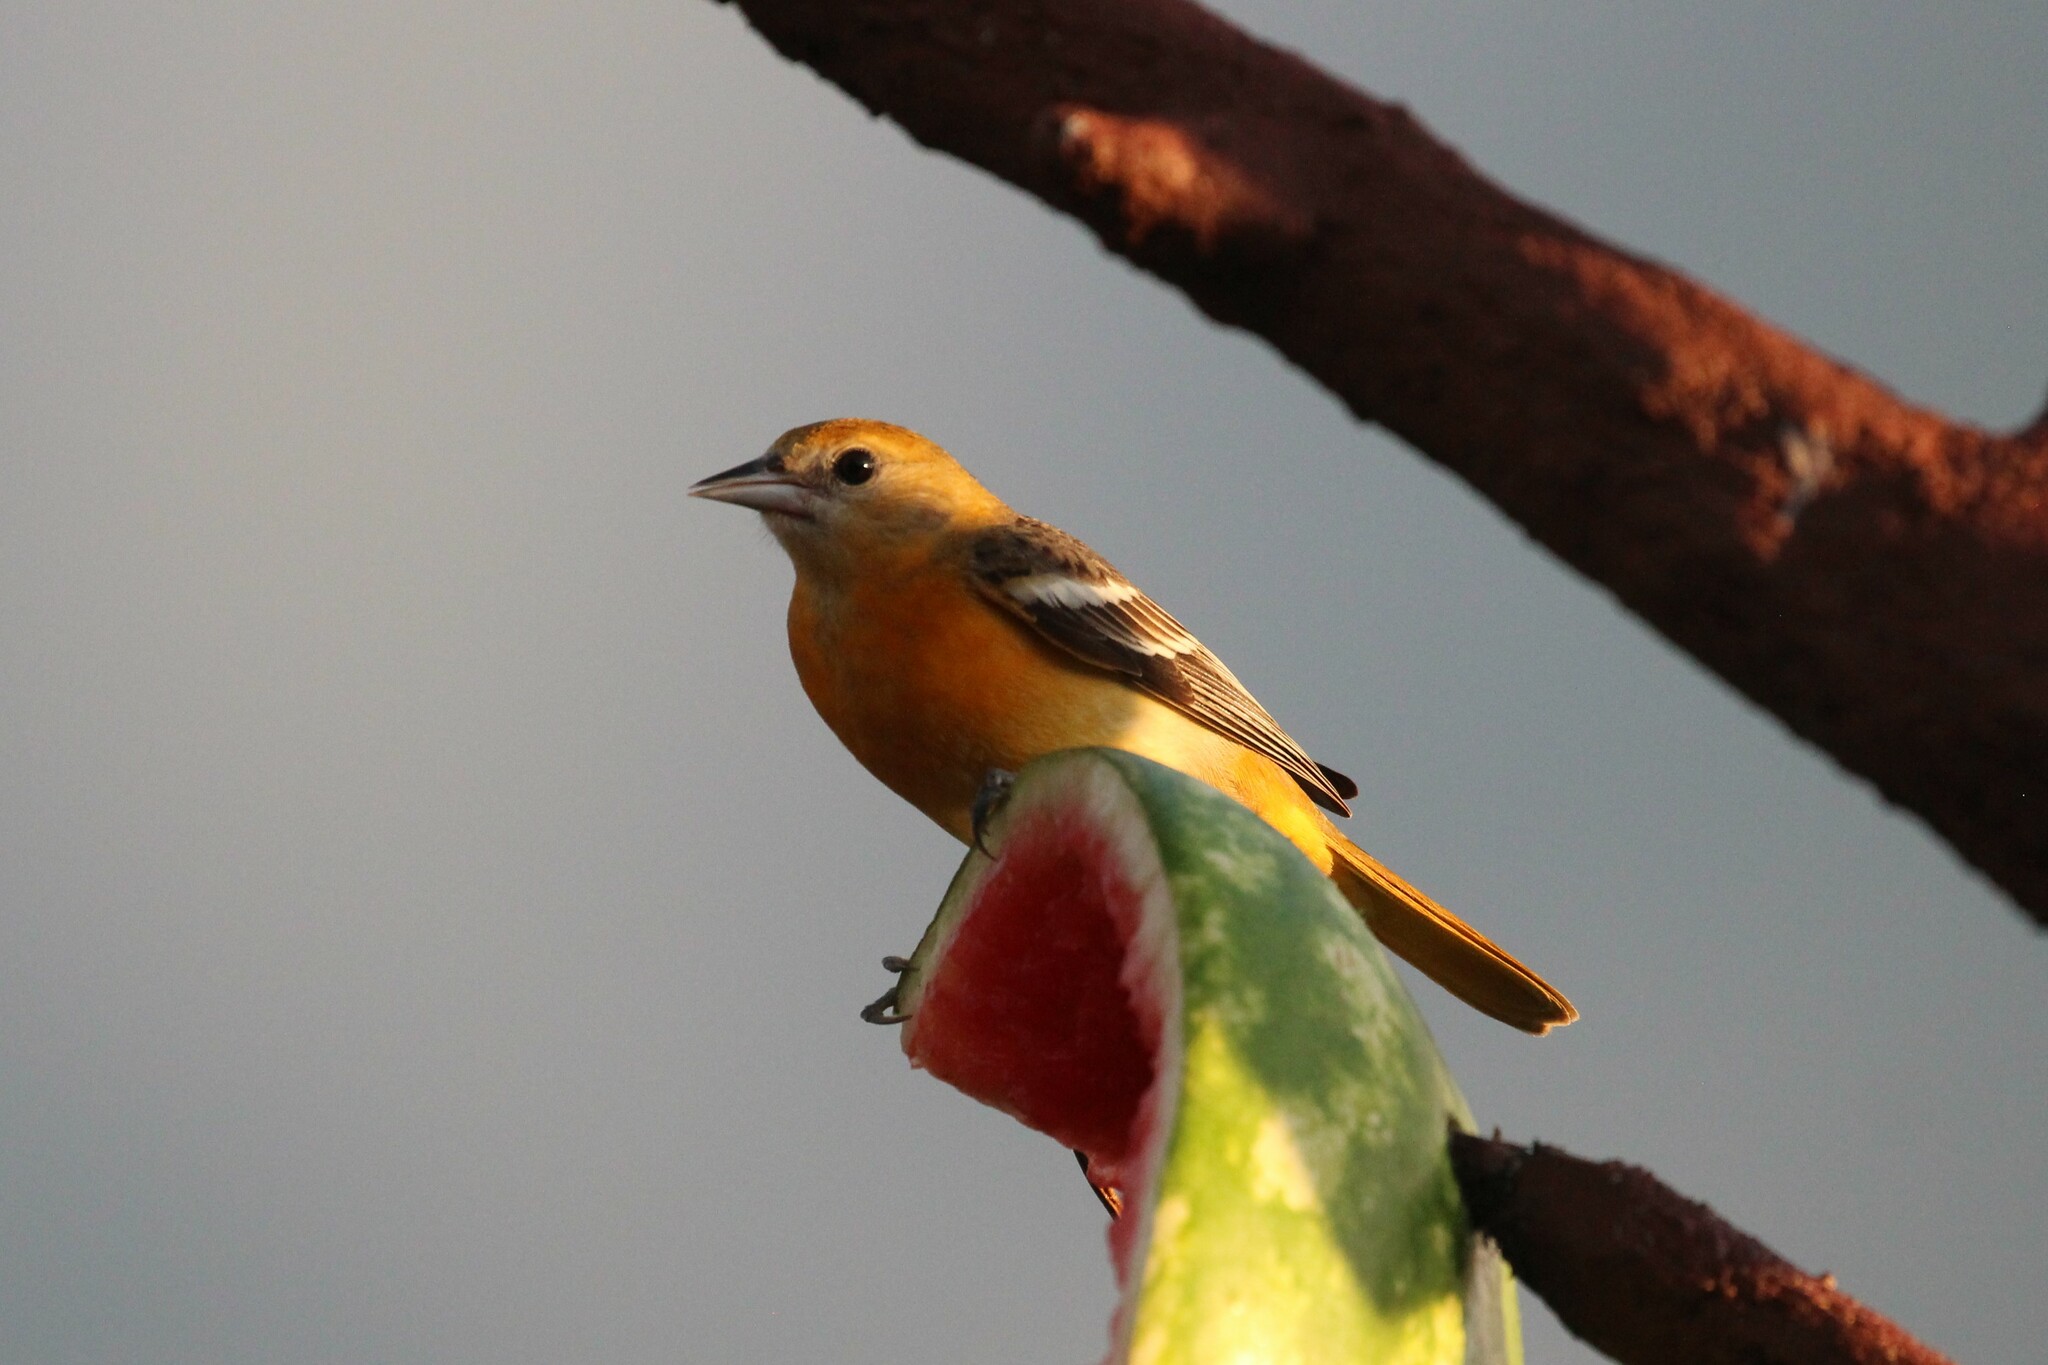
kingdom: Animalia
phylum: Chordata
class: Aves
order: Passeriformes
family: Icteridae
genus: Icterus
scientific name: Icterus galbula
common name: Baltimore oriole
